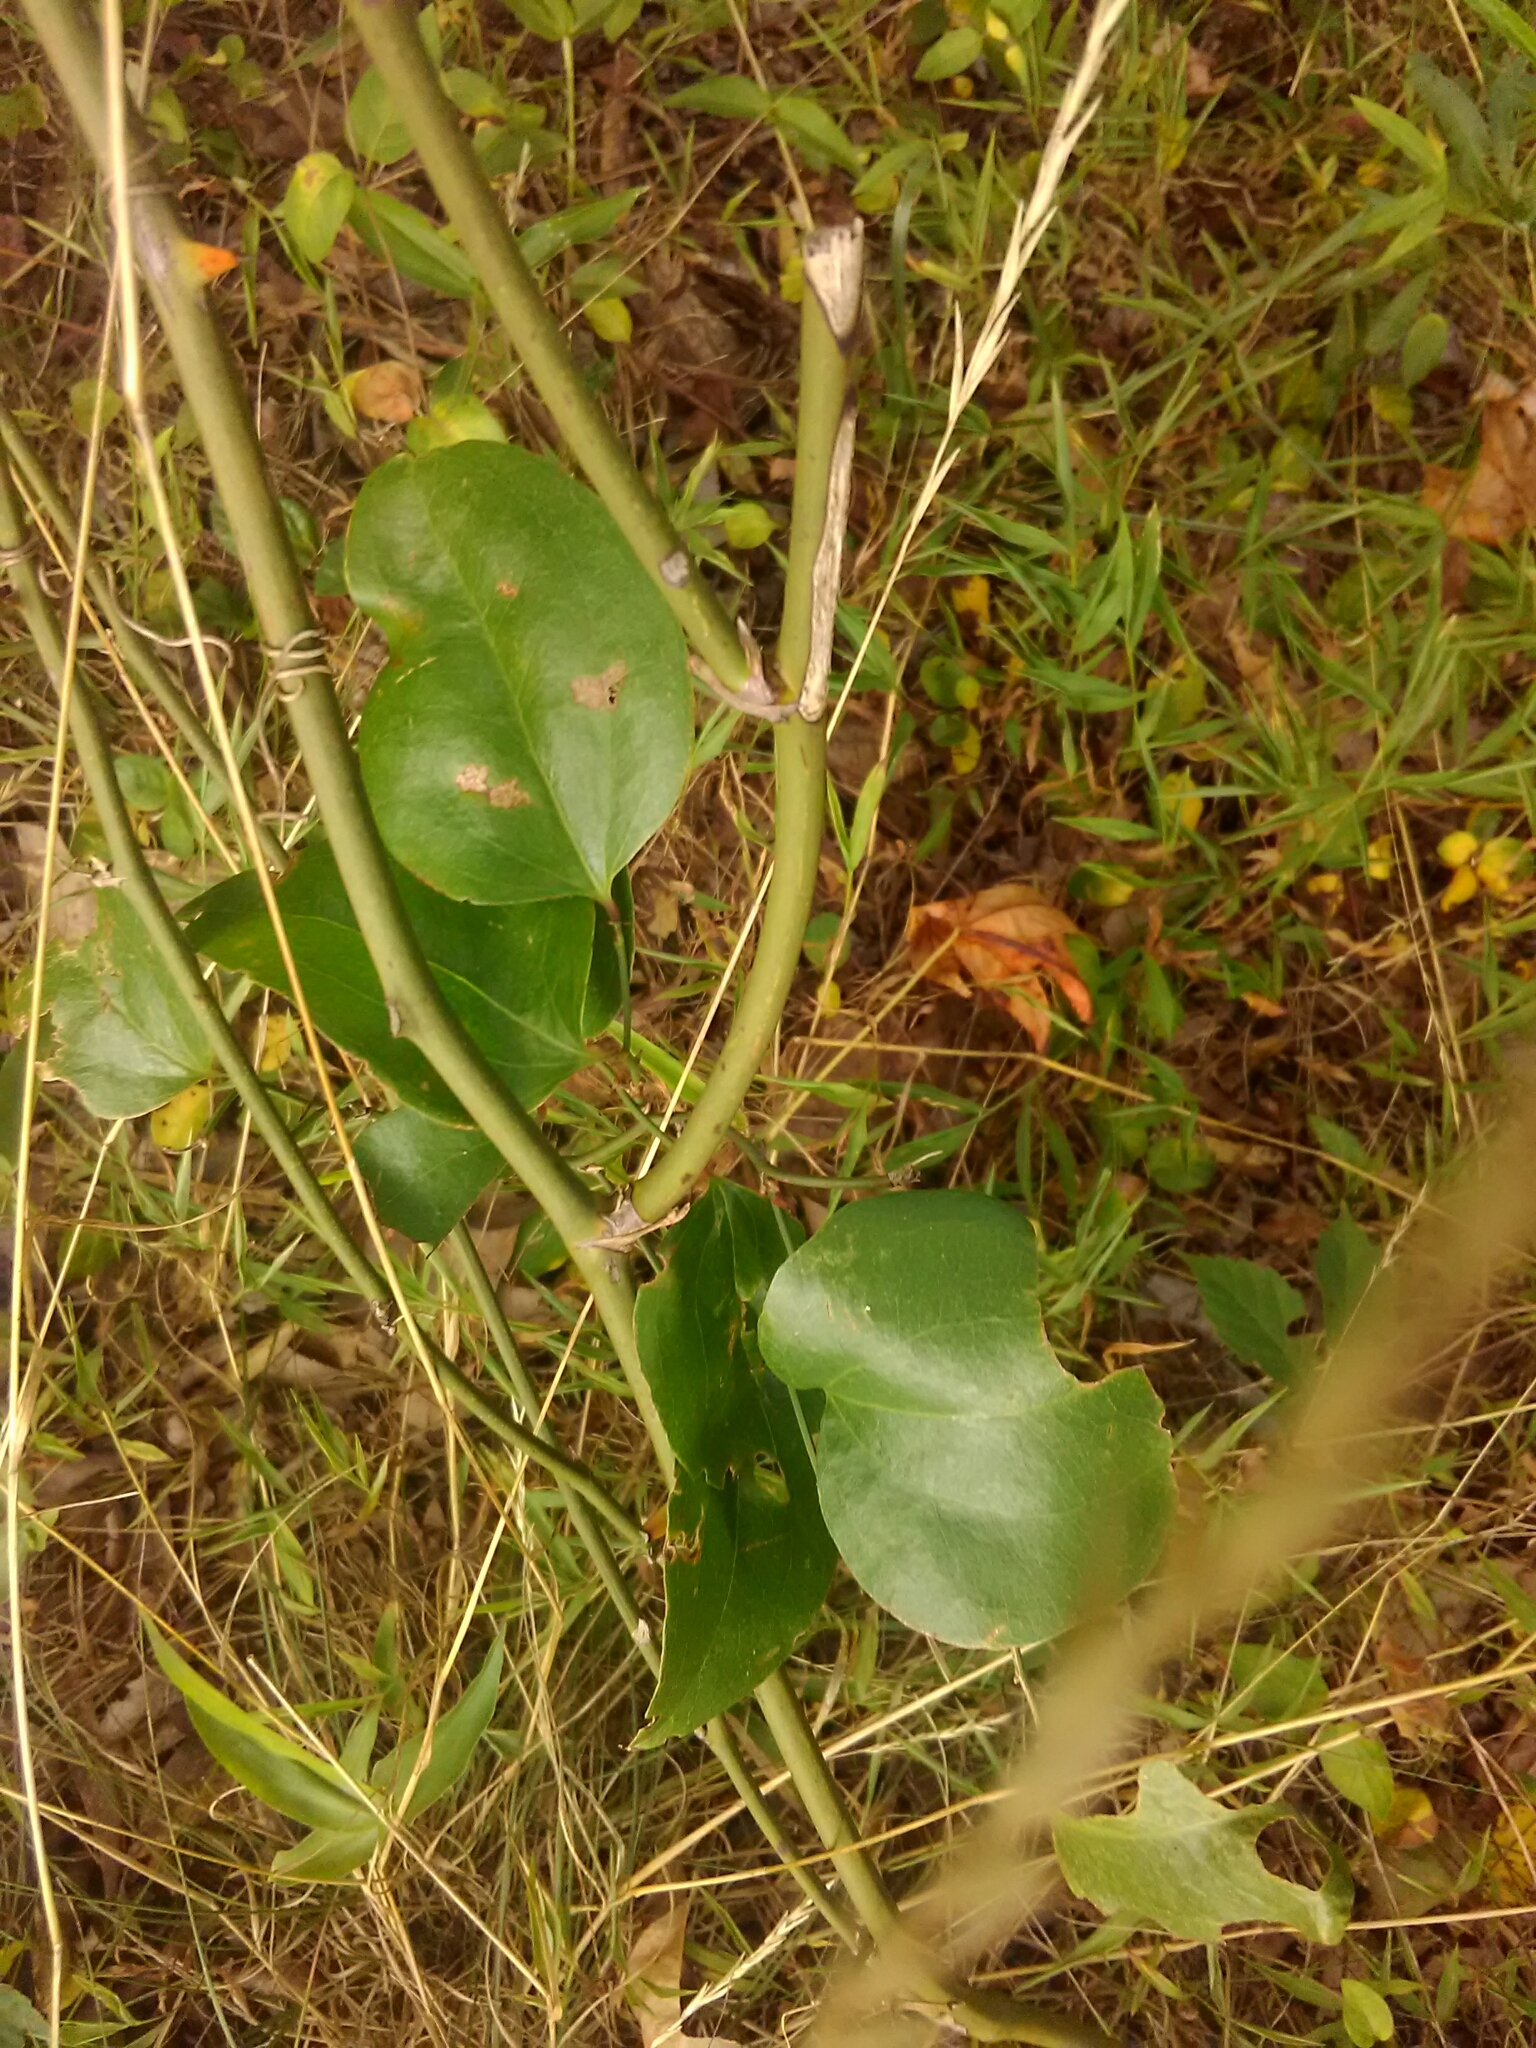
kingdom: Plantae
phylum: Tracheophyta
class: Liliopsida
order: Liliales
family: Smilacaceae
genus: Smilax
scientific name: Smilax rotundifolia
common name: Bullbriar
